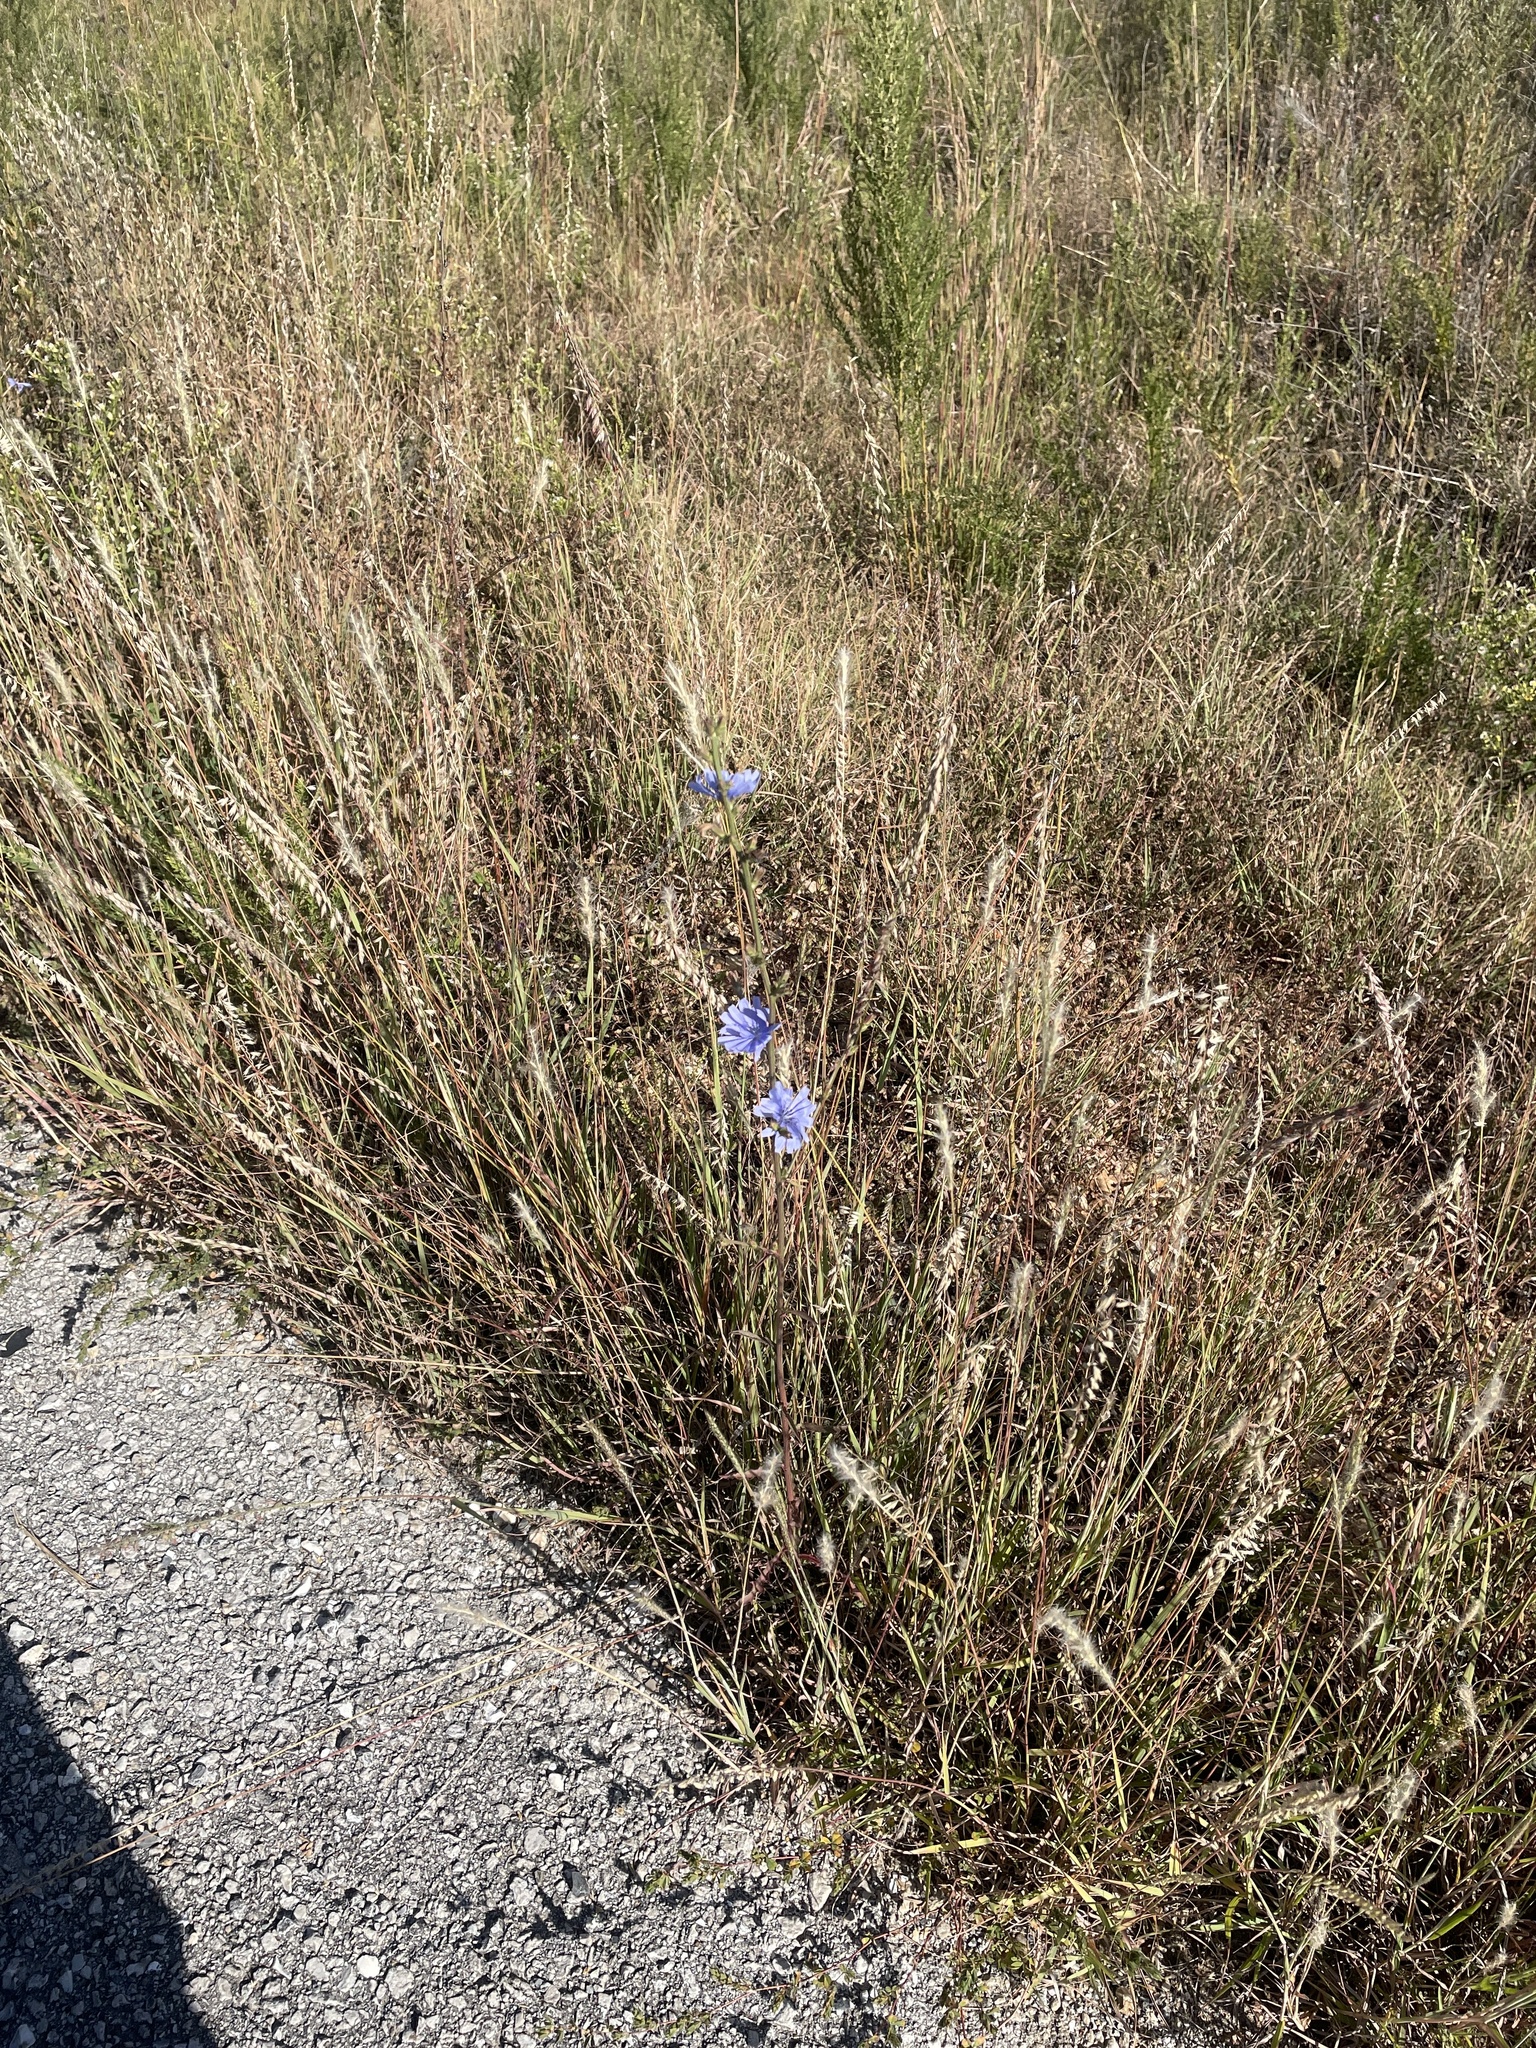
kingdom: Plantae
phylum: Tracheophyta
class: Magnoliopsida
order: Asterales
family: Asteraceae
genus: Cichorium
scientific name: Cichorium intybus
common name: Chicory
